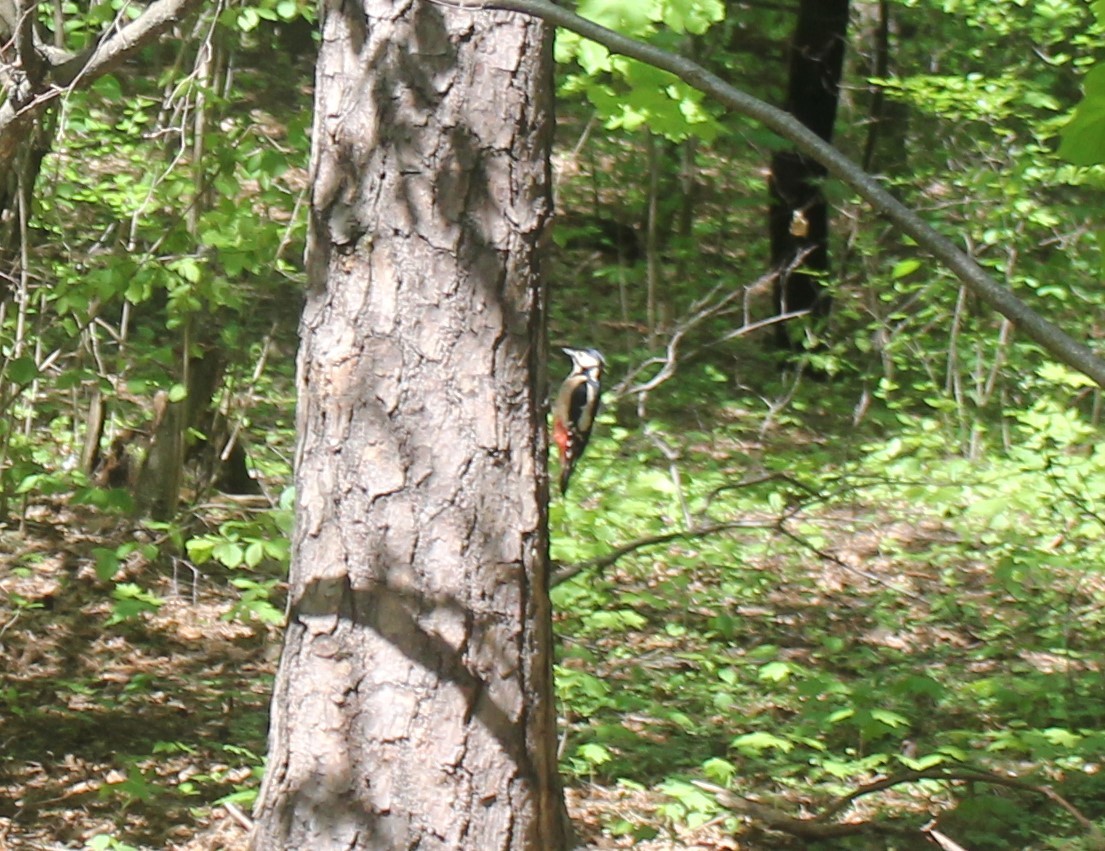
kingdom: Animalia
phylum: Chordata
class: Aves
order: Piciformes
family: Picidae
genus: Dendrocopos
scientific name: Dendrocopos major
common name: Great spotted woodpecker
